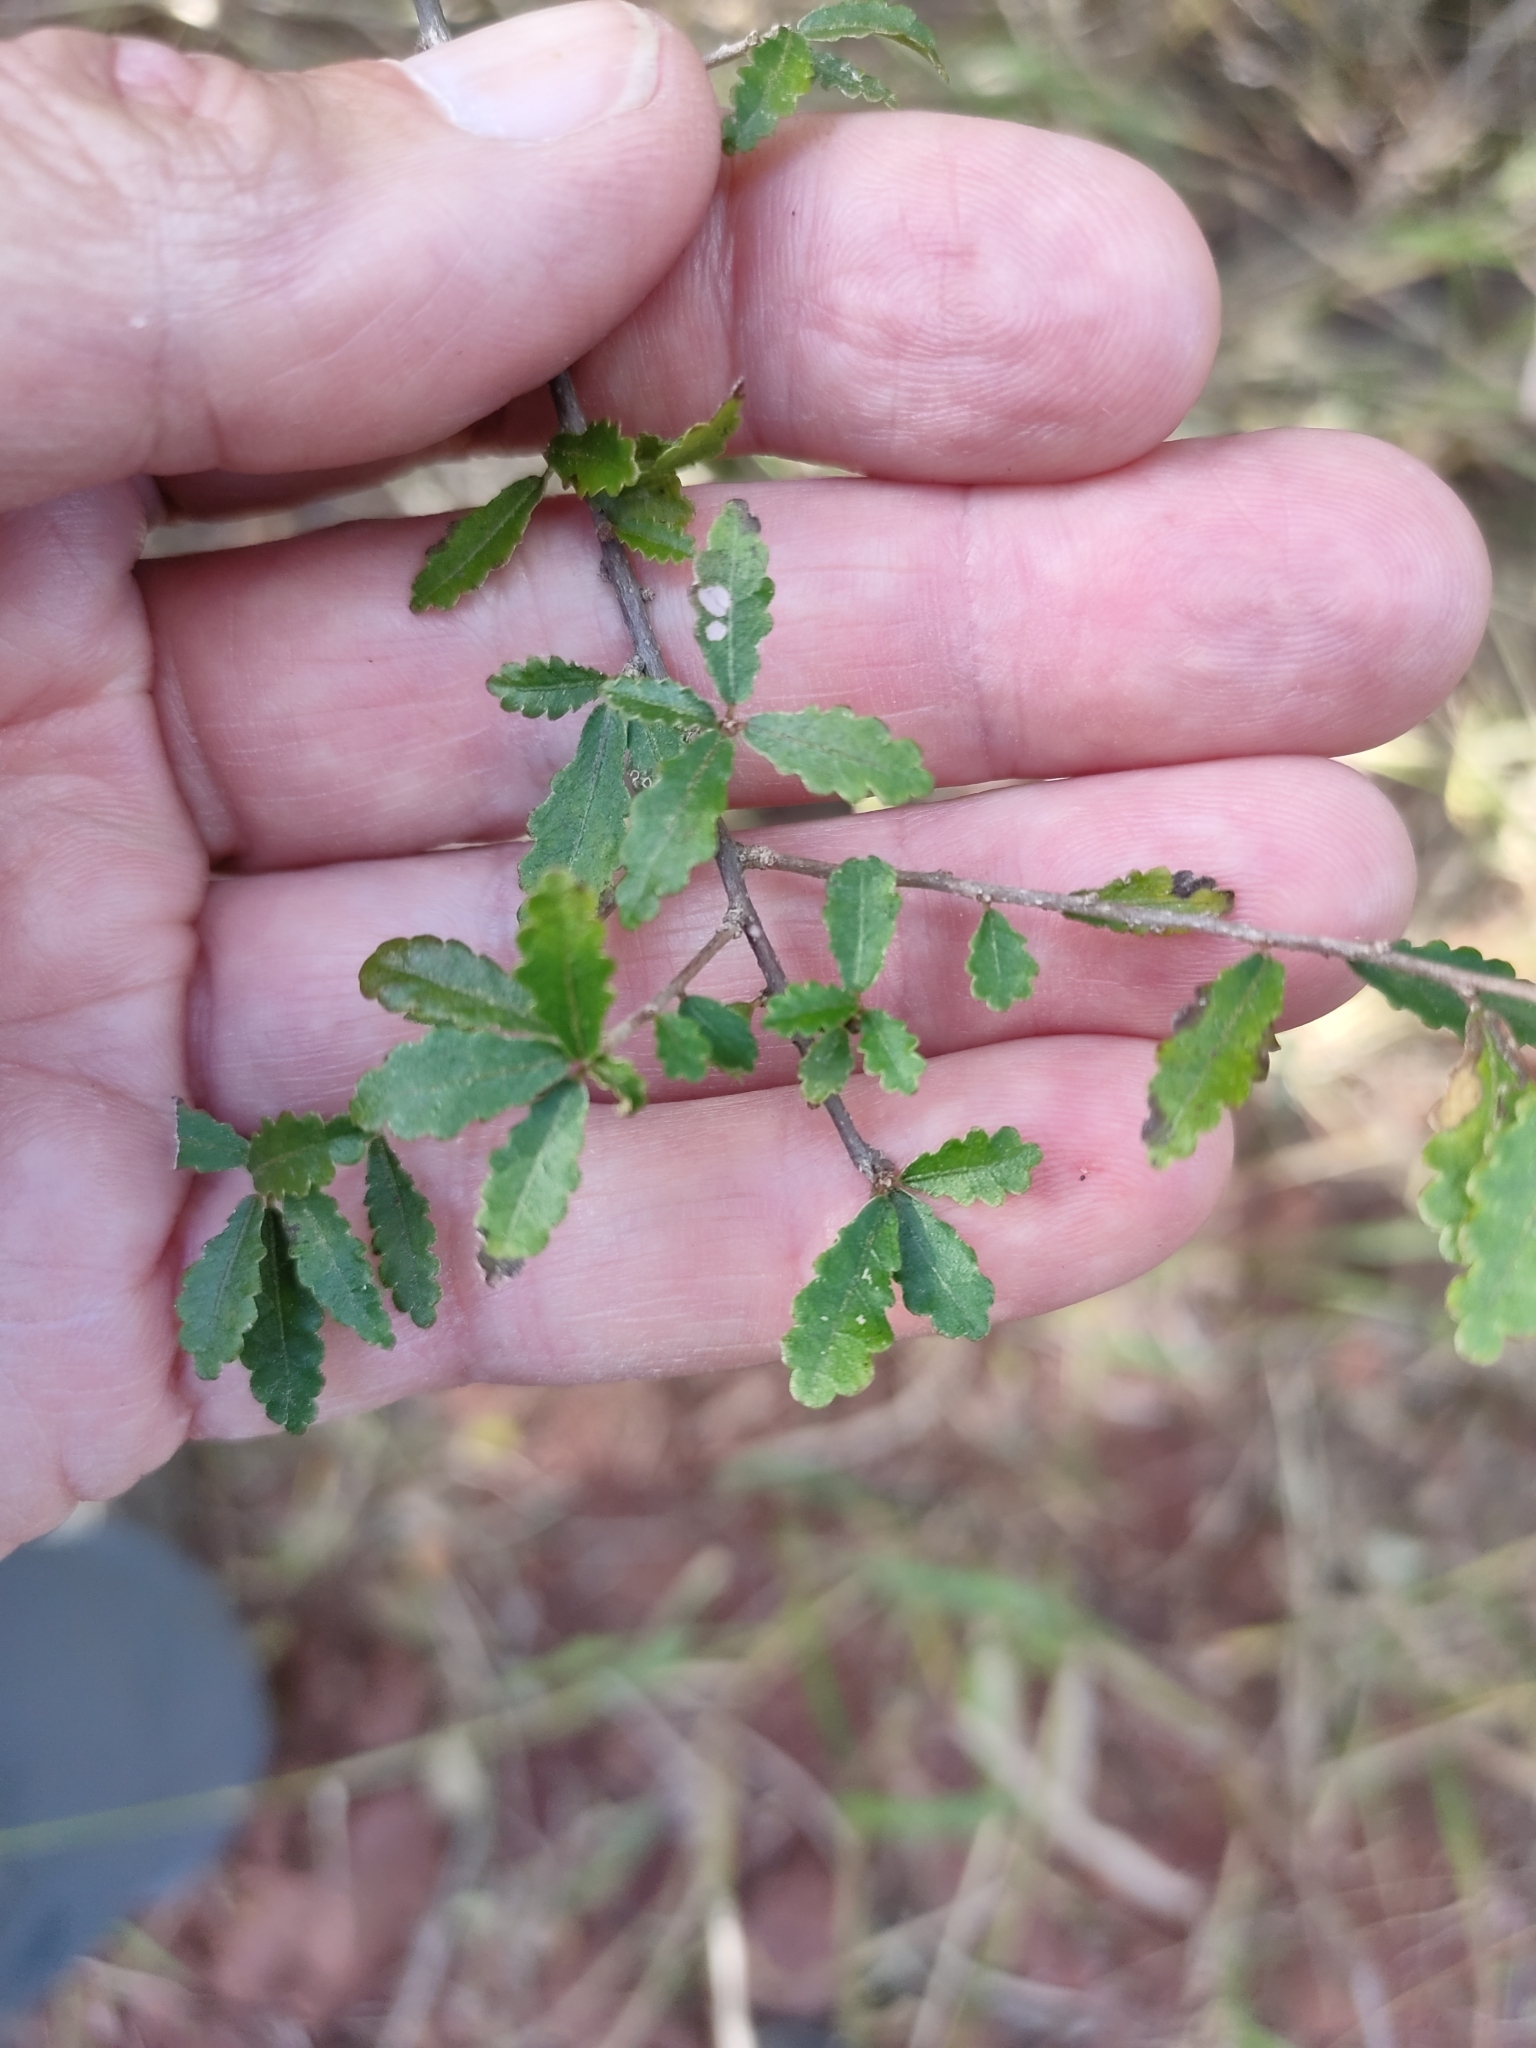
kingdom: Plantae
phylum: Tracheophyta
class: Magnoliopsida
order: Malpighiales
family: Euphorbiaceae
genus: Acalypha
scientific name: Acalypha capillipes
